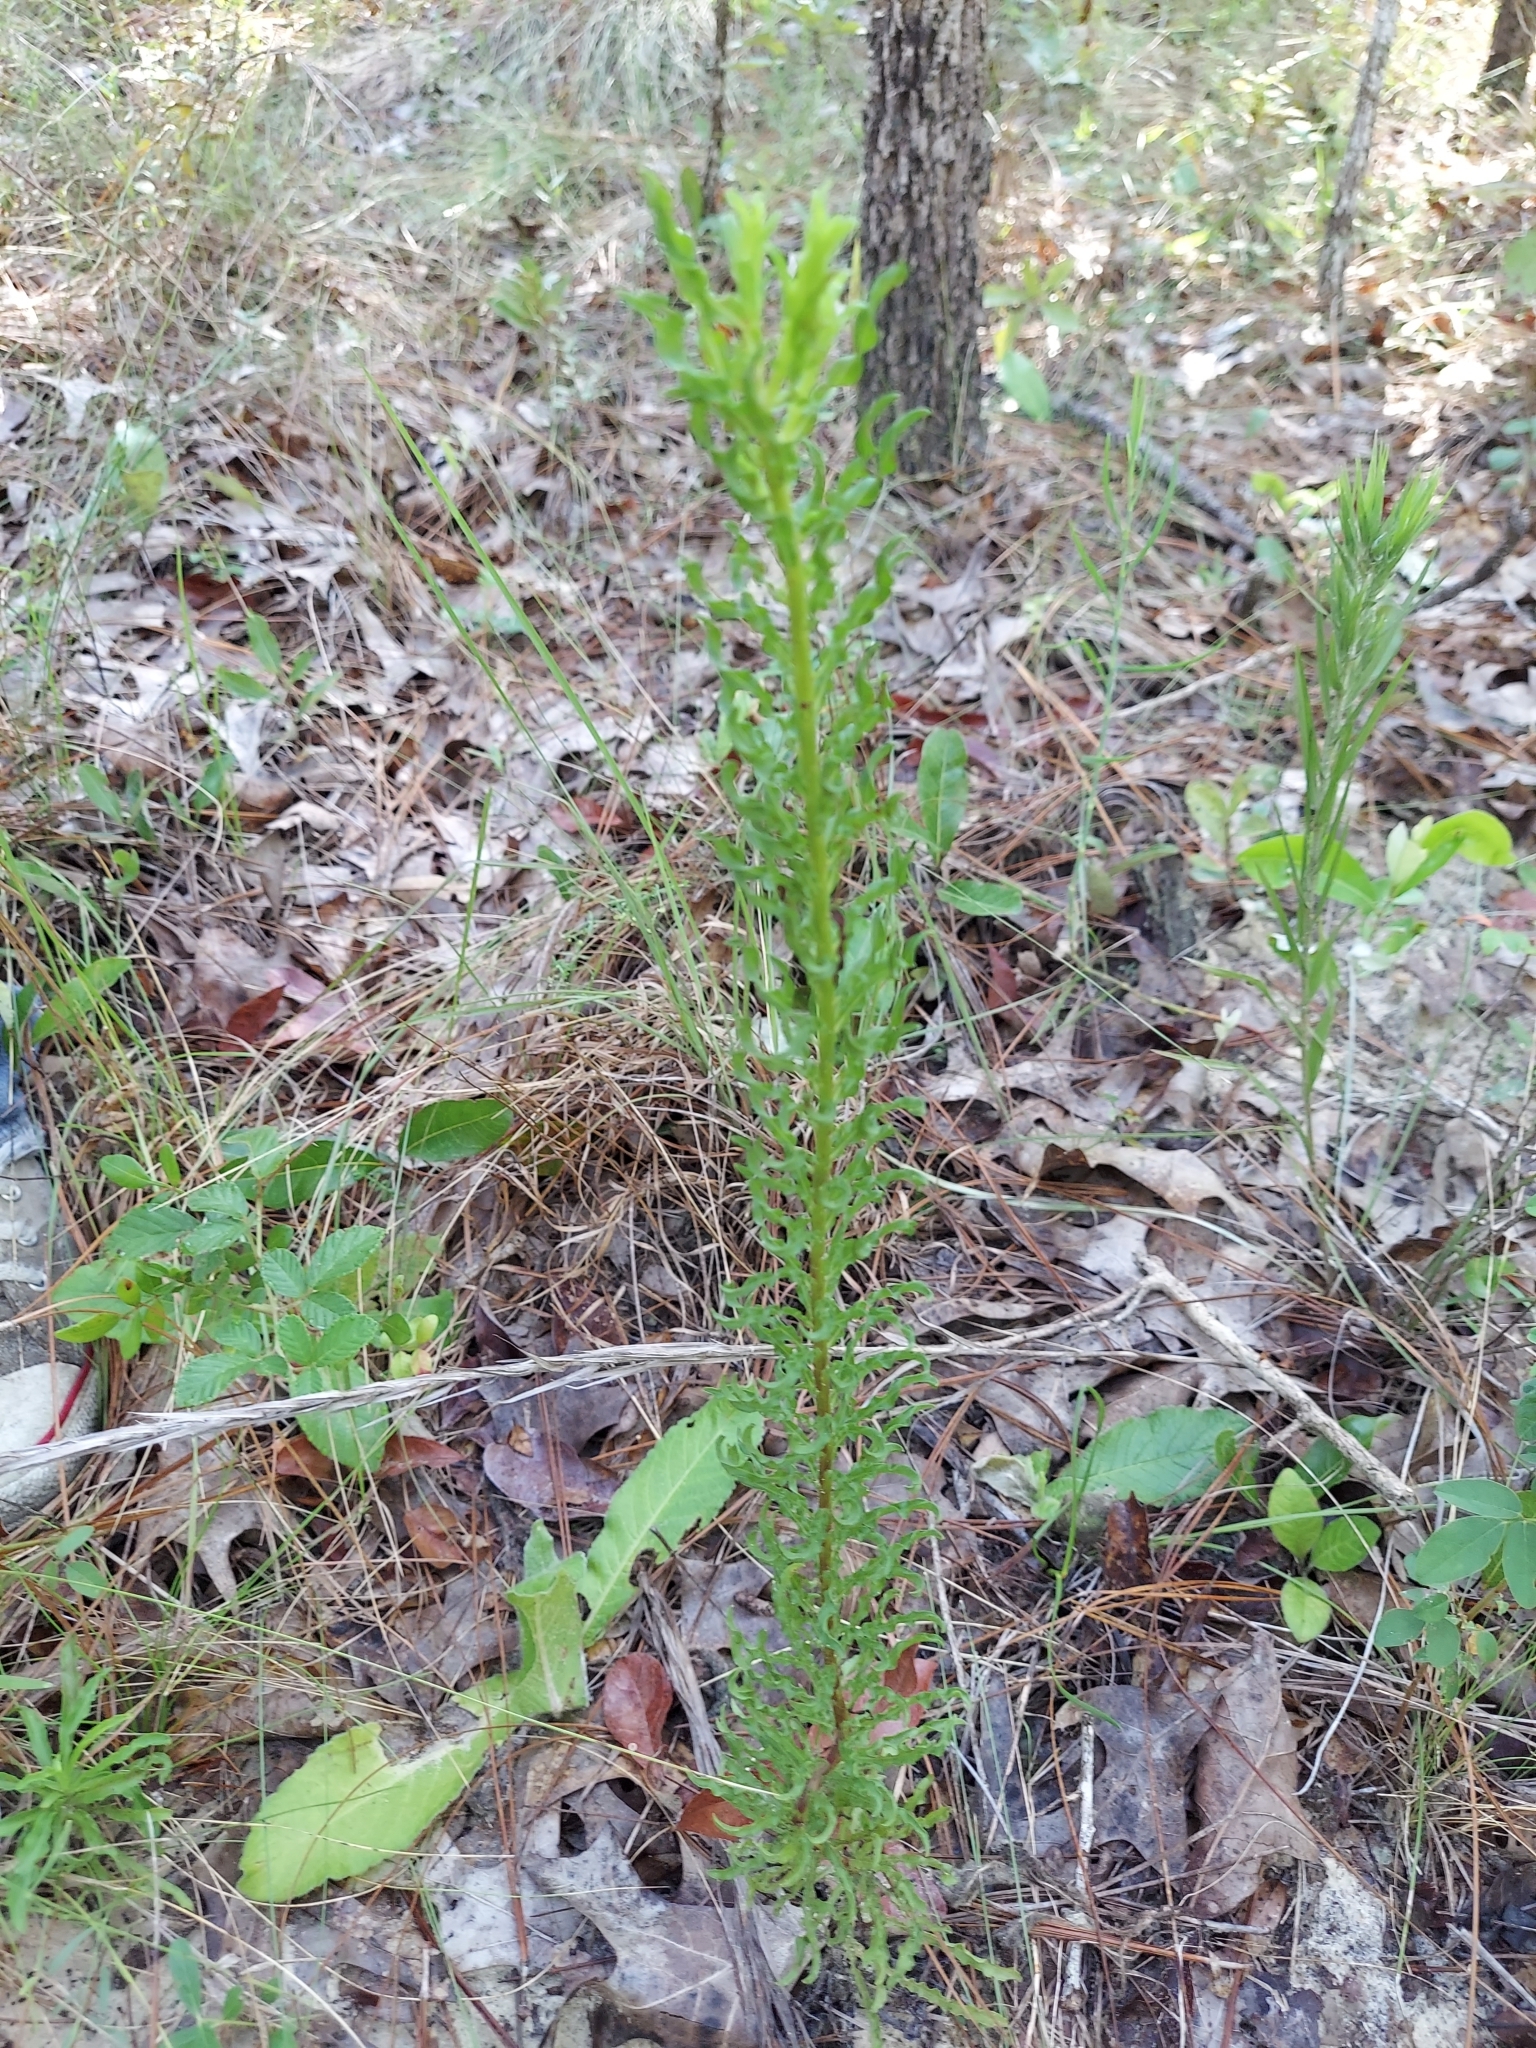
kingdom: Plantae
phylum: Tracheophyta
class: Magnoliopsida
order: Asterales
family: Asteraceae
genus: Chrysopsis
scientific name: Chrysopsis linearifolia
